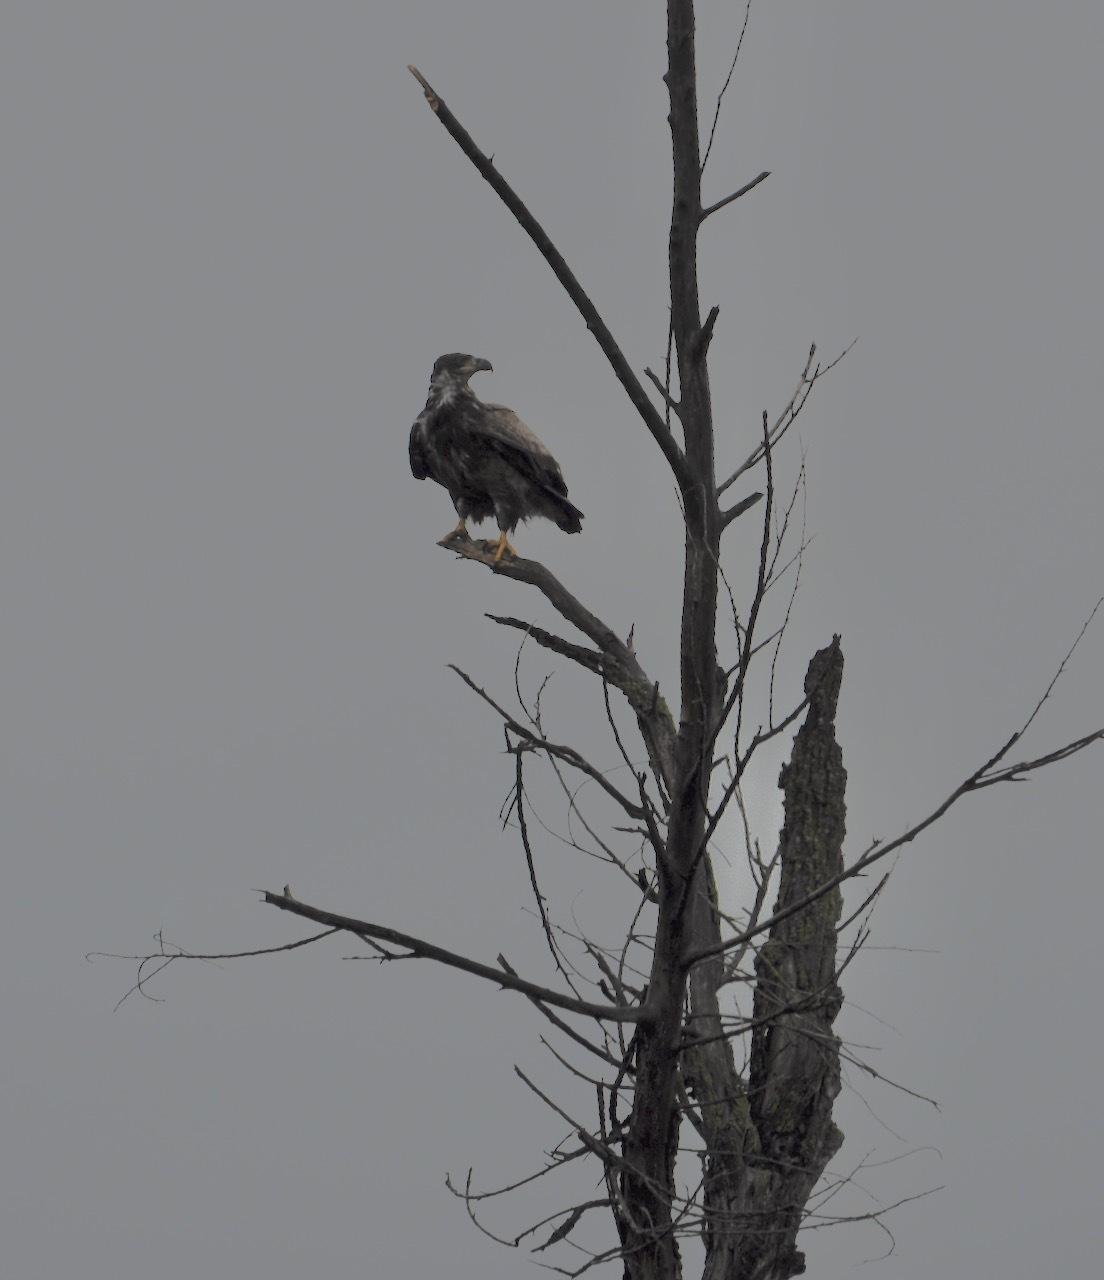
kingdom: Animalia
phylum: Chordata
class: Aves
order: Accipitriformes
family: Accipitridae
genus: Haliaeetus
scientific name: Haliaeetus leucocephalus
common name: Bald eagle
